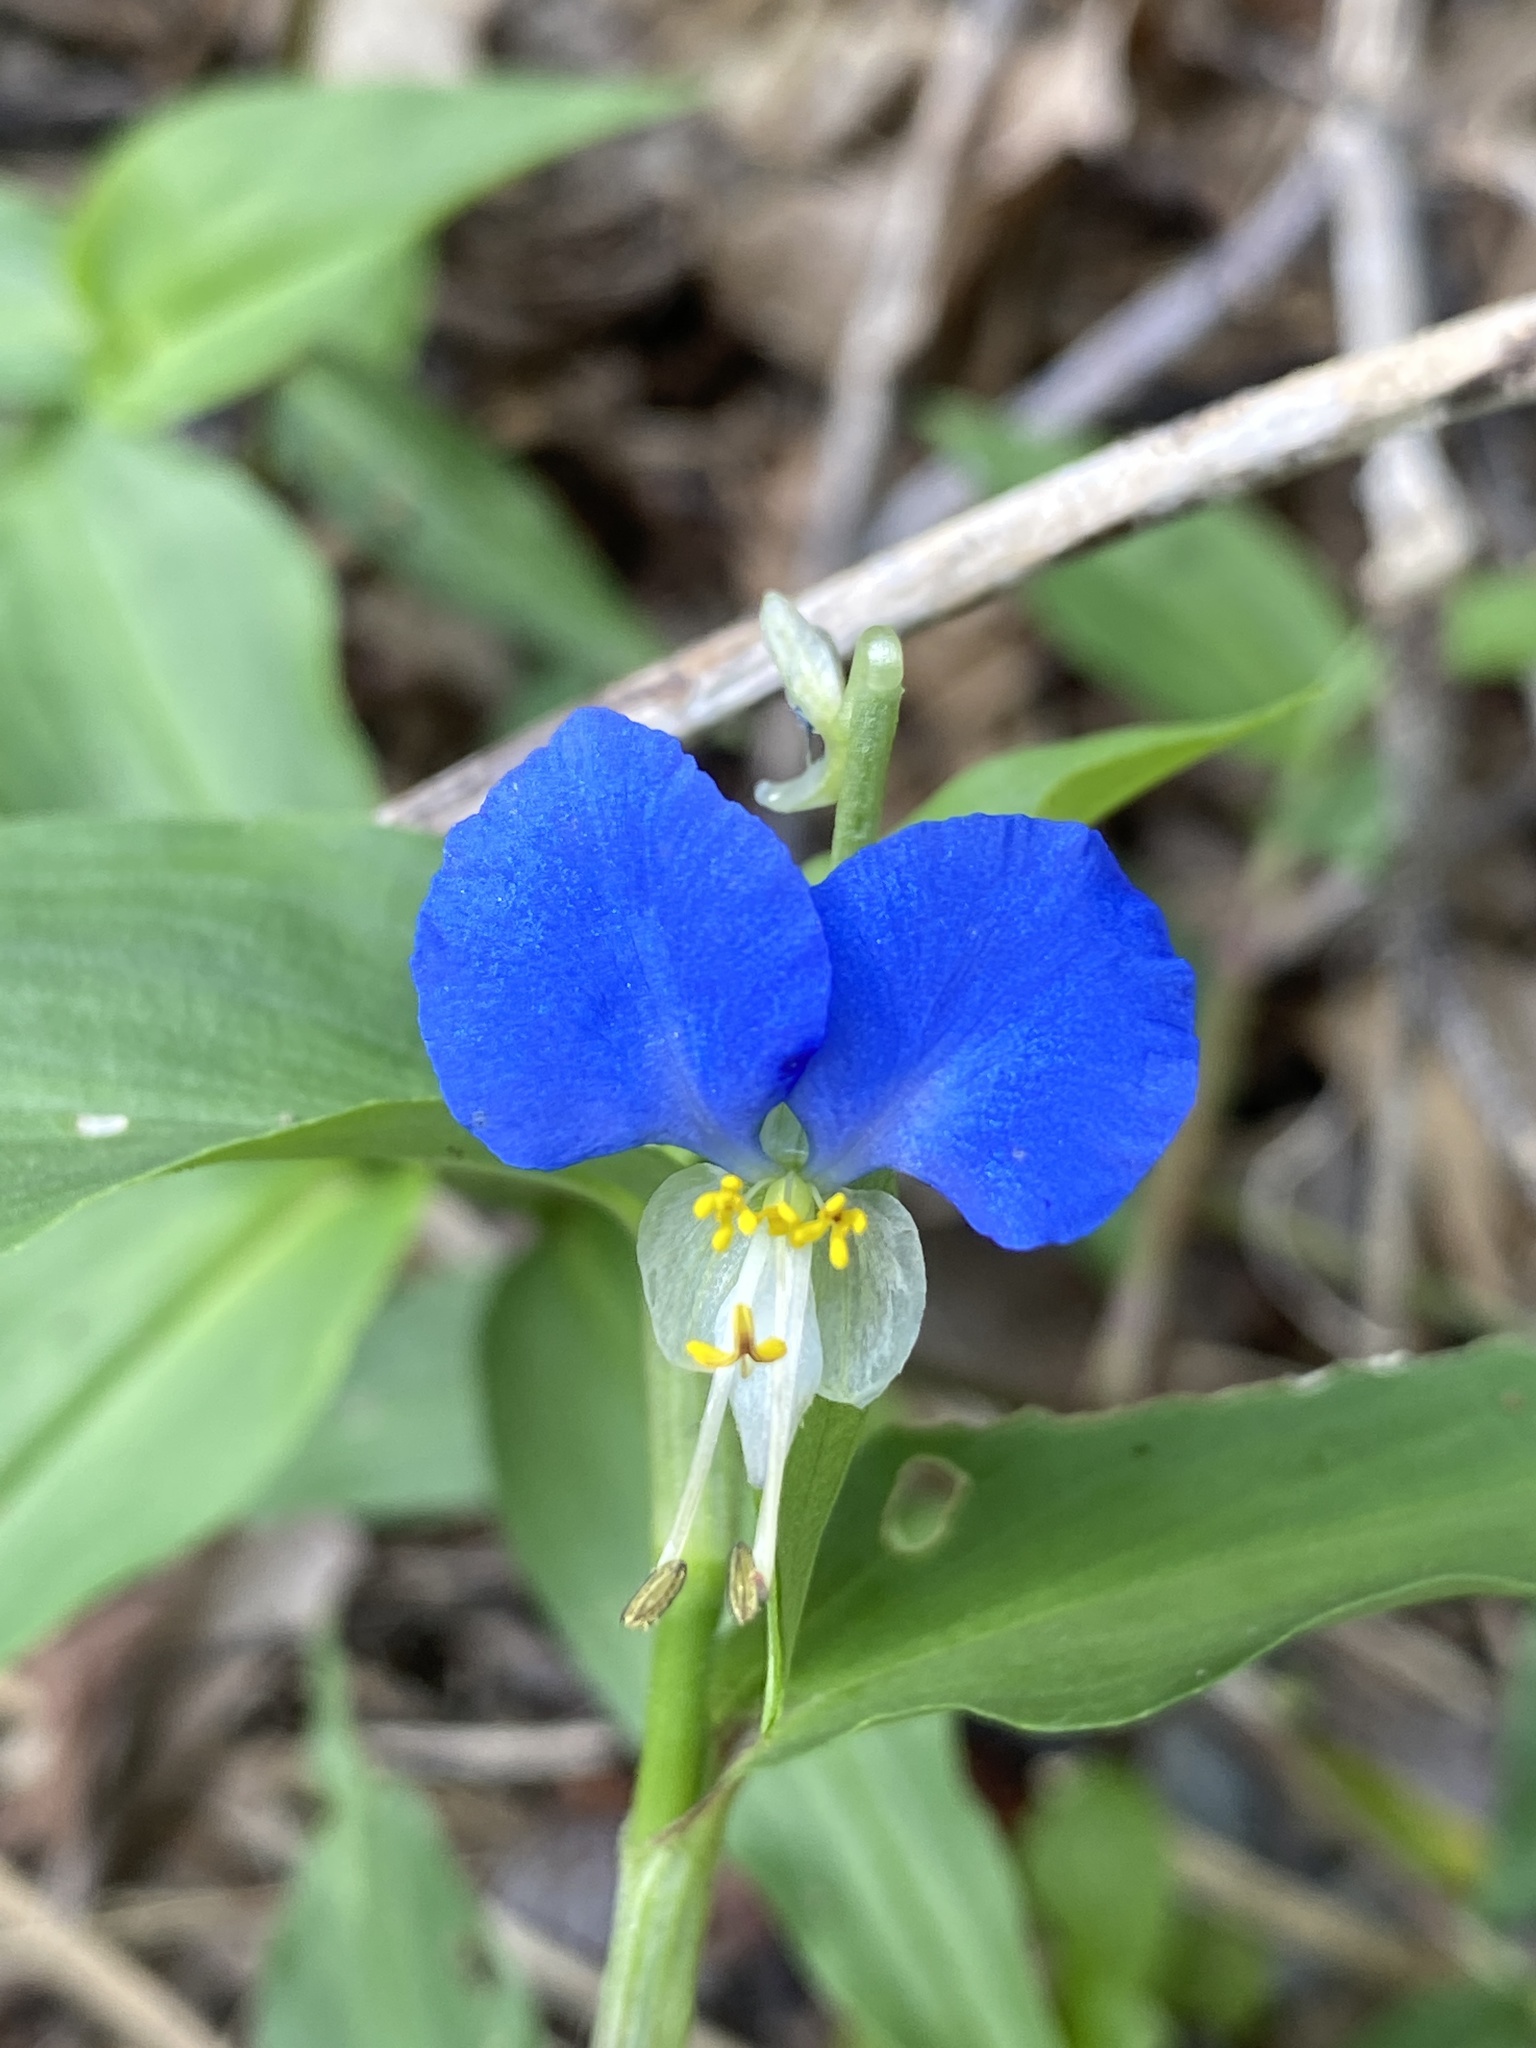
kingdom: Plantae
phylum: Tracheophyta
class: Liliopsida
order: Commelinales
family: Commelinaceae
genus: Commelina
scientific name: Commelina communis
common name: Asiatic dayflower
